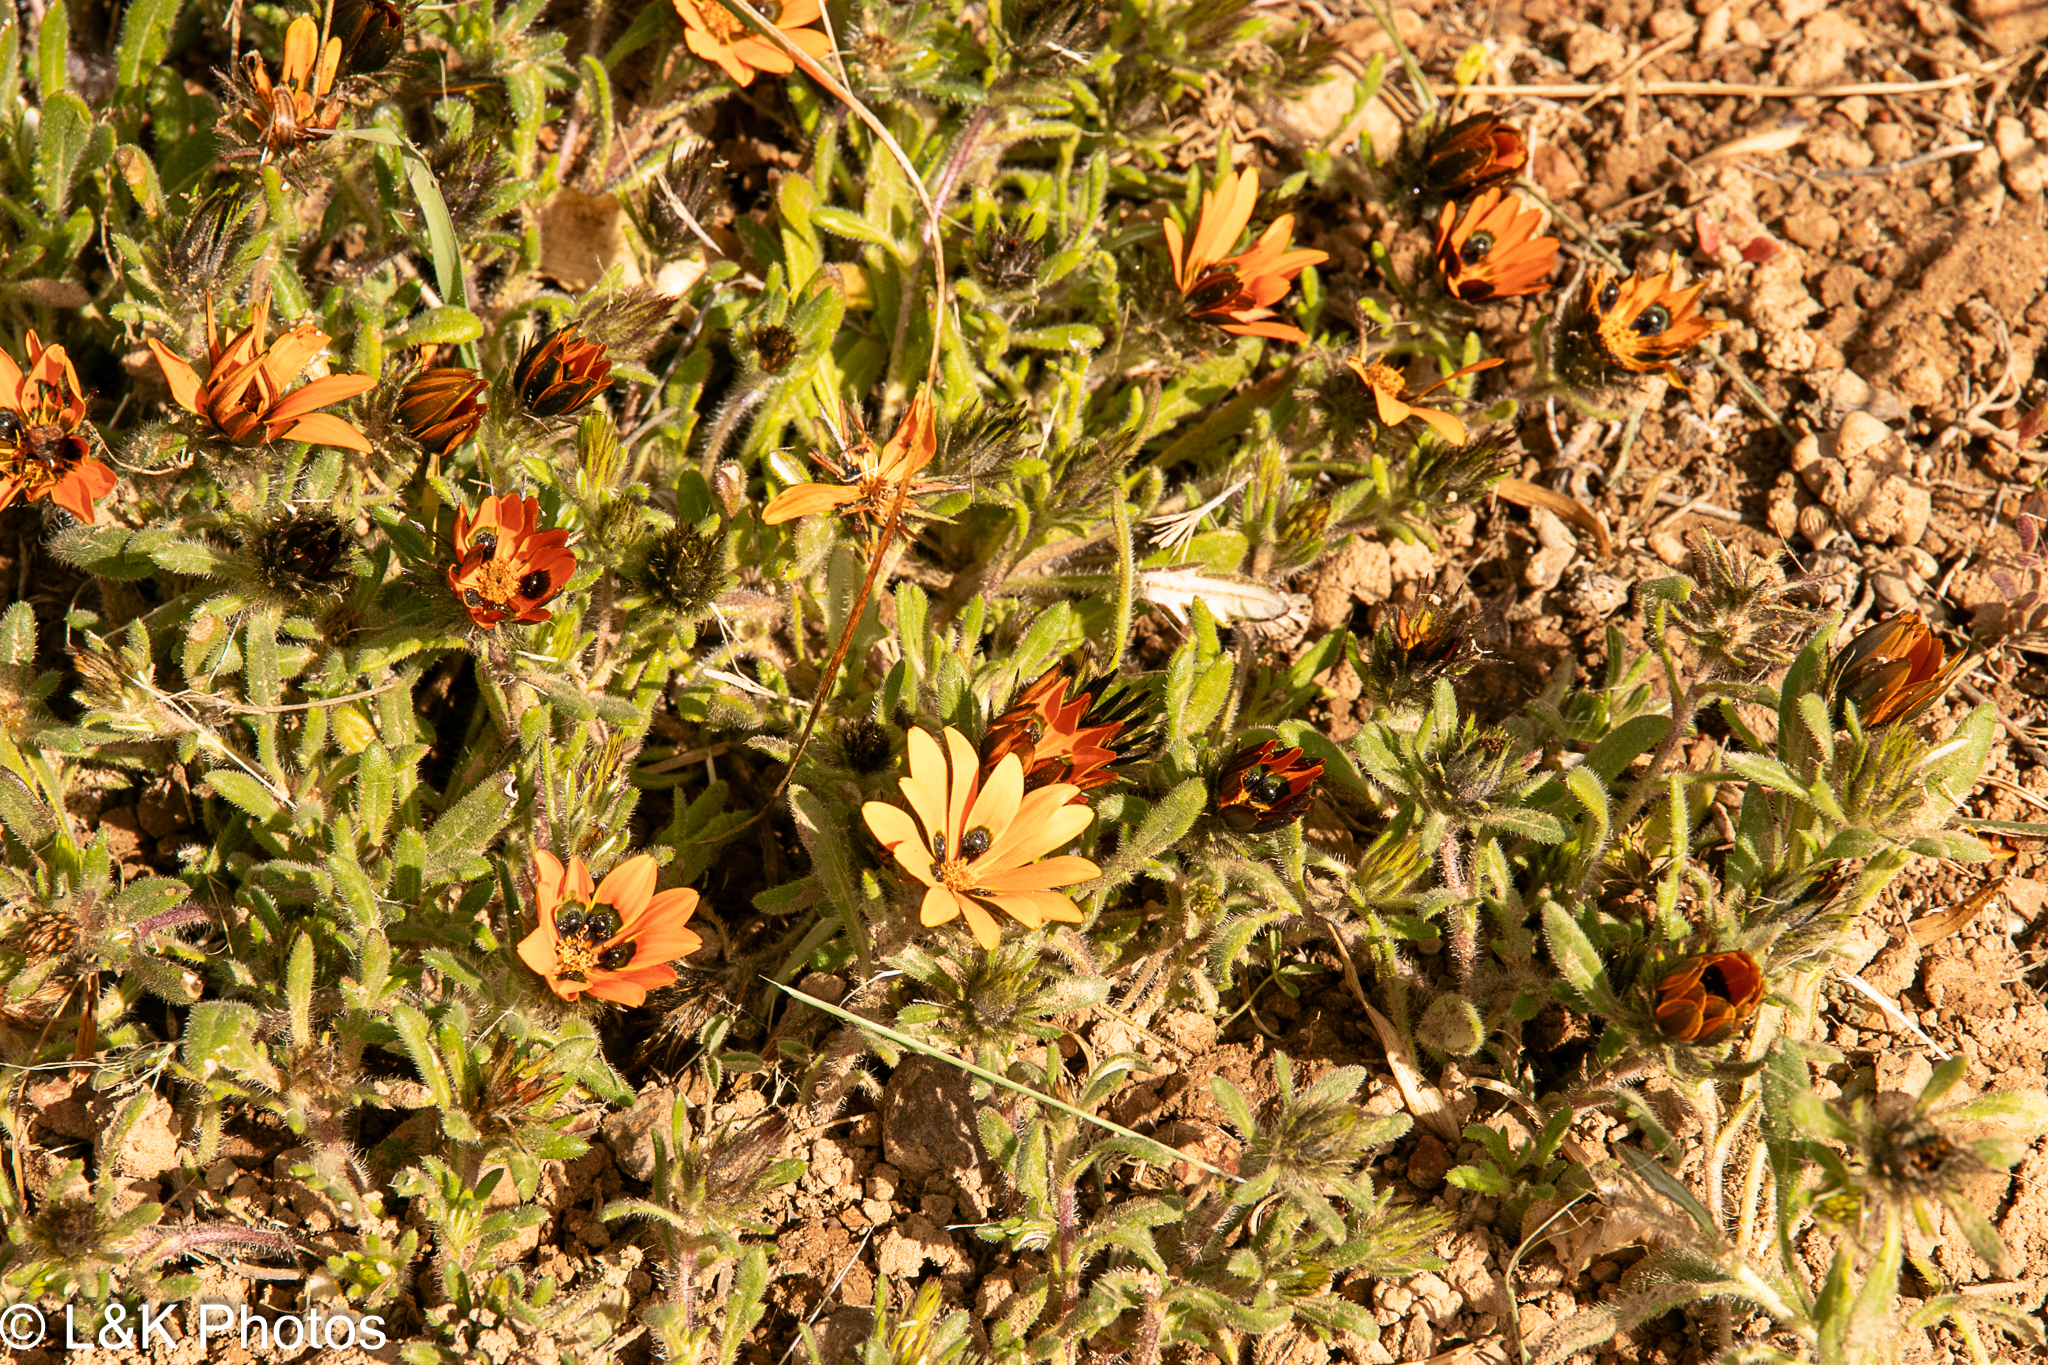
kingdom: Plantae
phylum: Tracheophyta
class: Magnoliopsida
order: Asterales
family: Asteraceae
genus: Gorteria
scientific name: Gorteria diffusa
